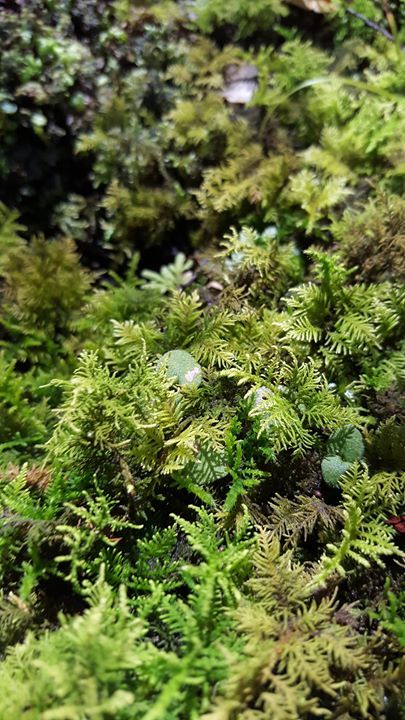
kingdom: Plantae
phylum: Bryophyta
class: Bryopsida
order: Hypnales
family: Thuidiaceae
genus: Thuidiopsis
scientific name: Thuidiopsis furfurosa
